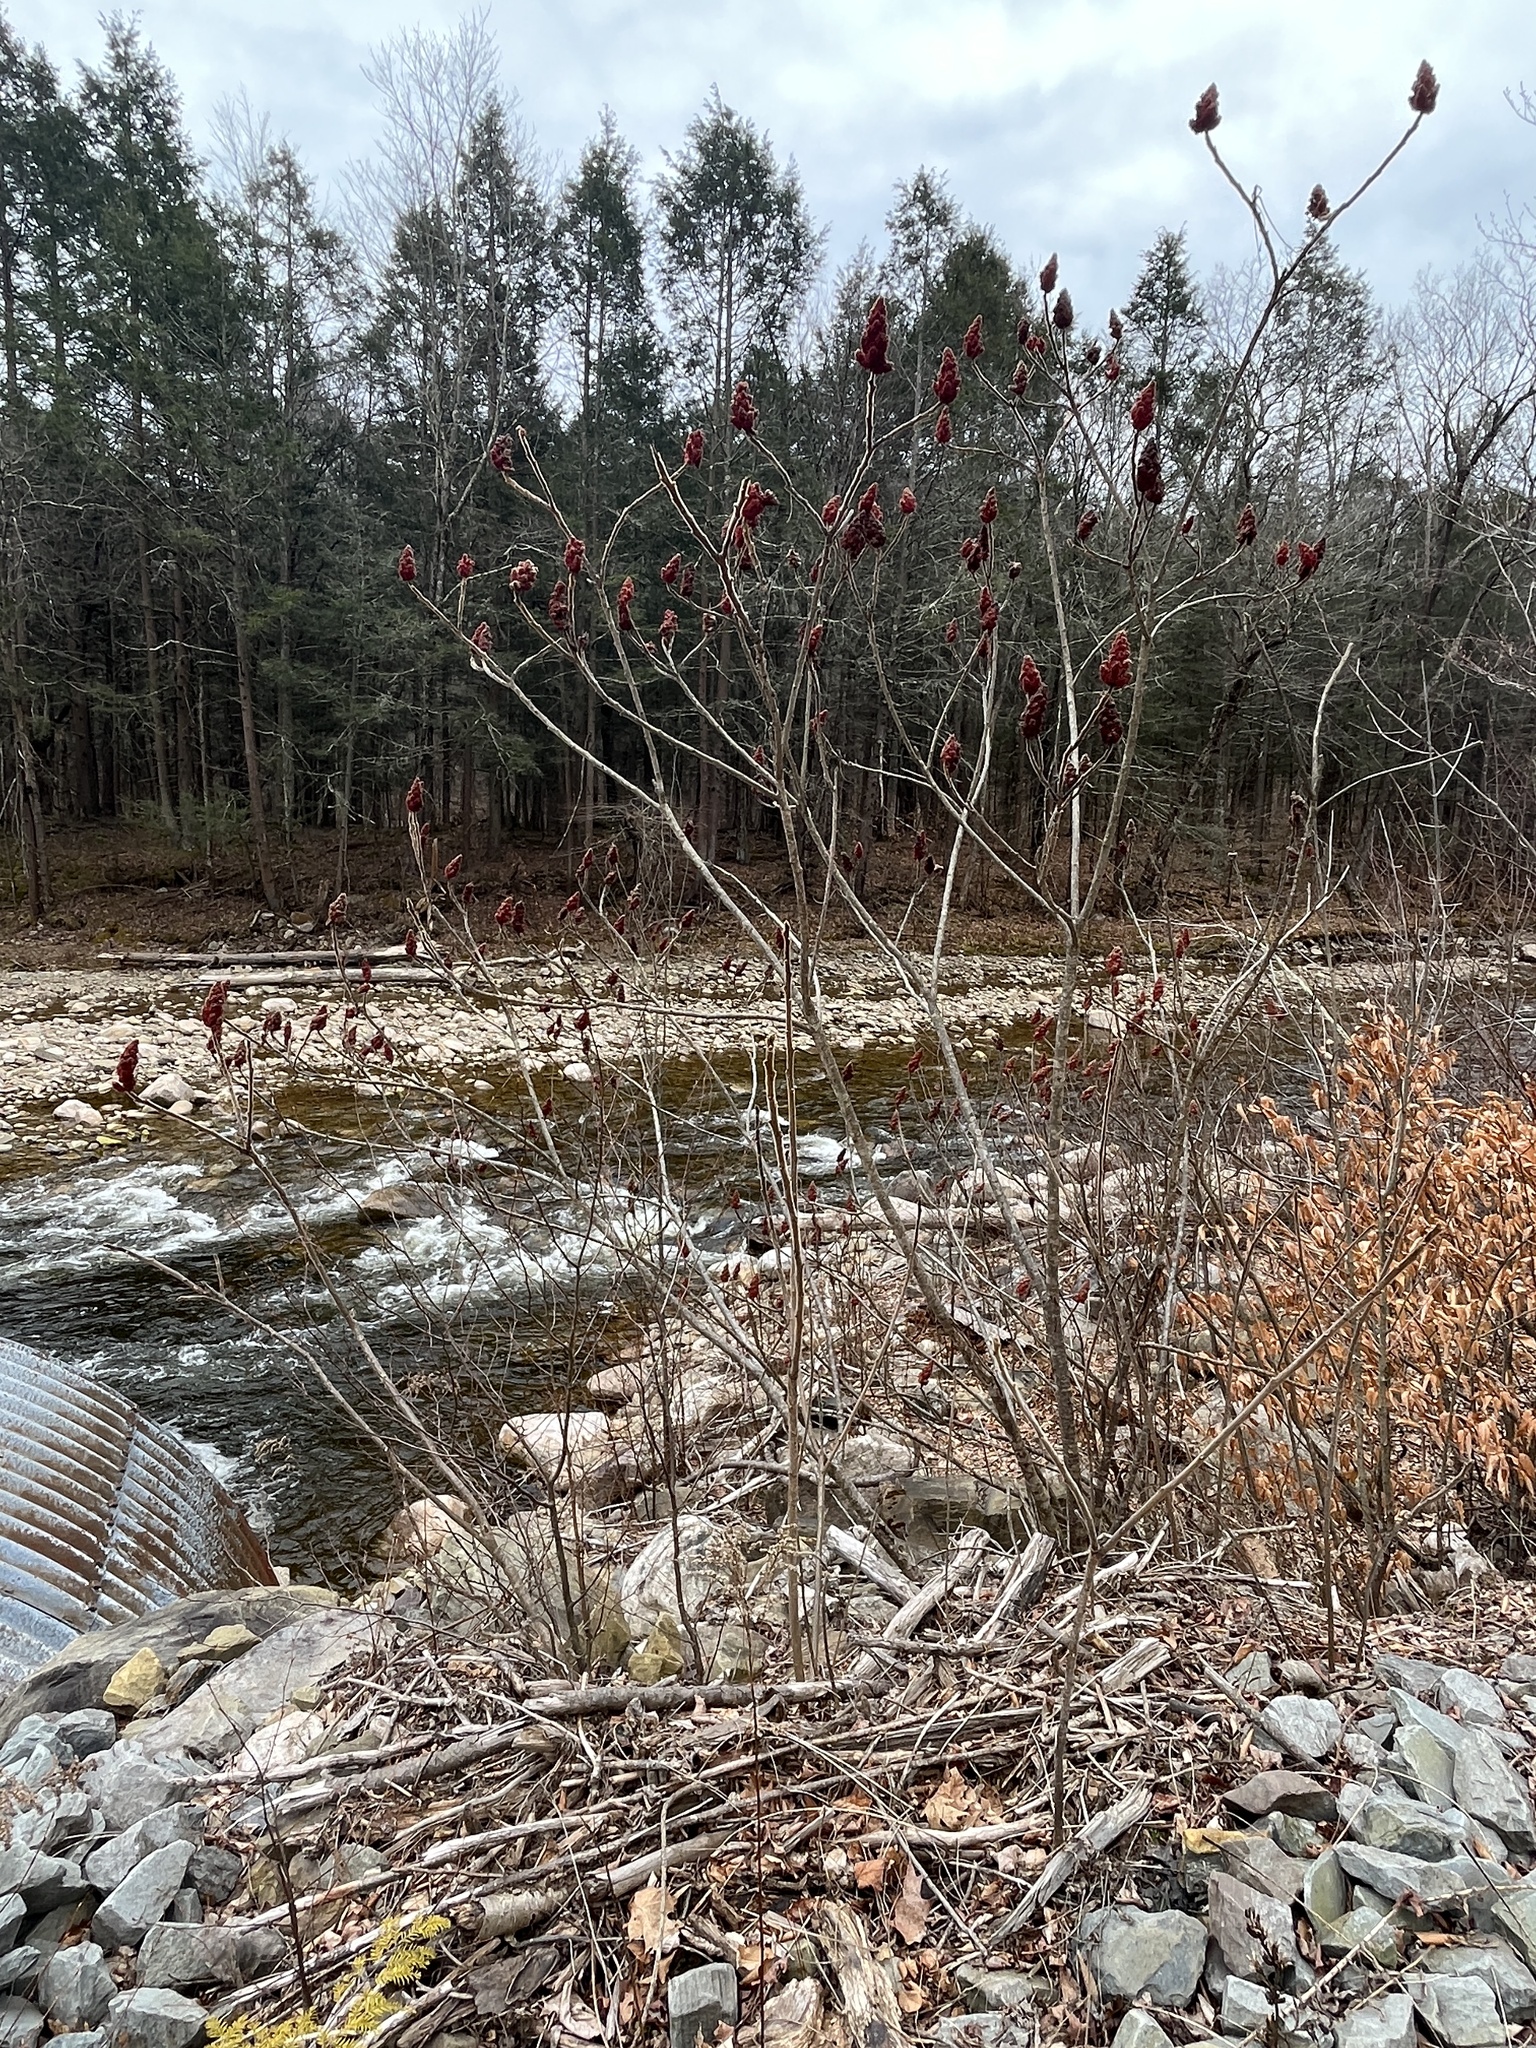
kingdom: Plantae
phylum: Tracheophyta
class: Magnoliopsida
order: Sapindales
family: Anacardiaceae
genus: Rhus
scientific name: Rhus typhina
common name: Staghorn sumac
